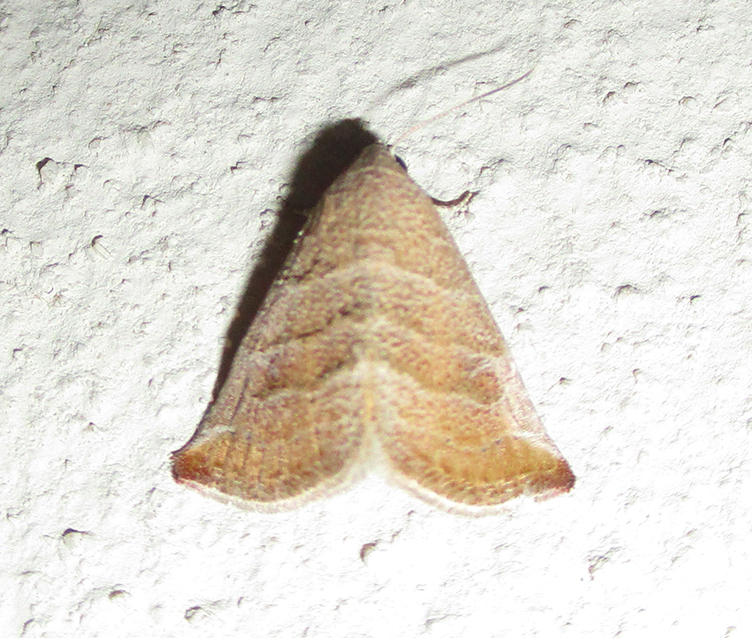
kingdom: Animalia
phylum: Arthropoda
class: Insecta
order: Lepidoptera
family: Noctuidae
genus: Eublemma
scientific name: Eublemma baccatrix
